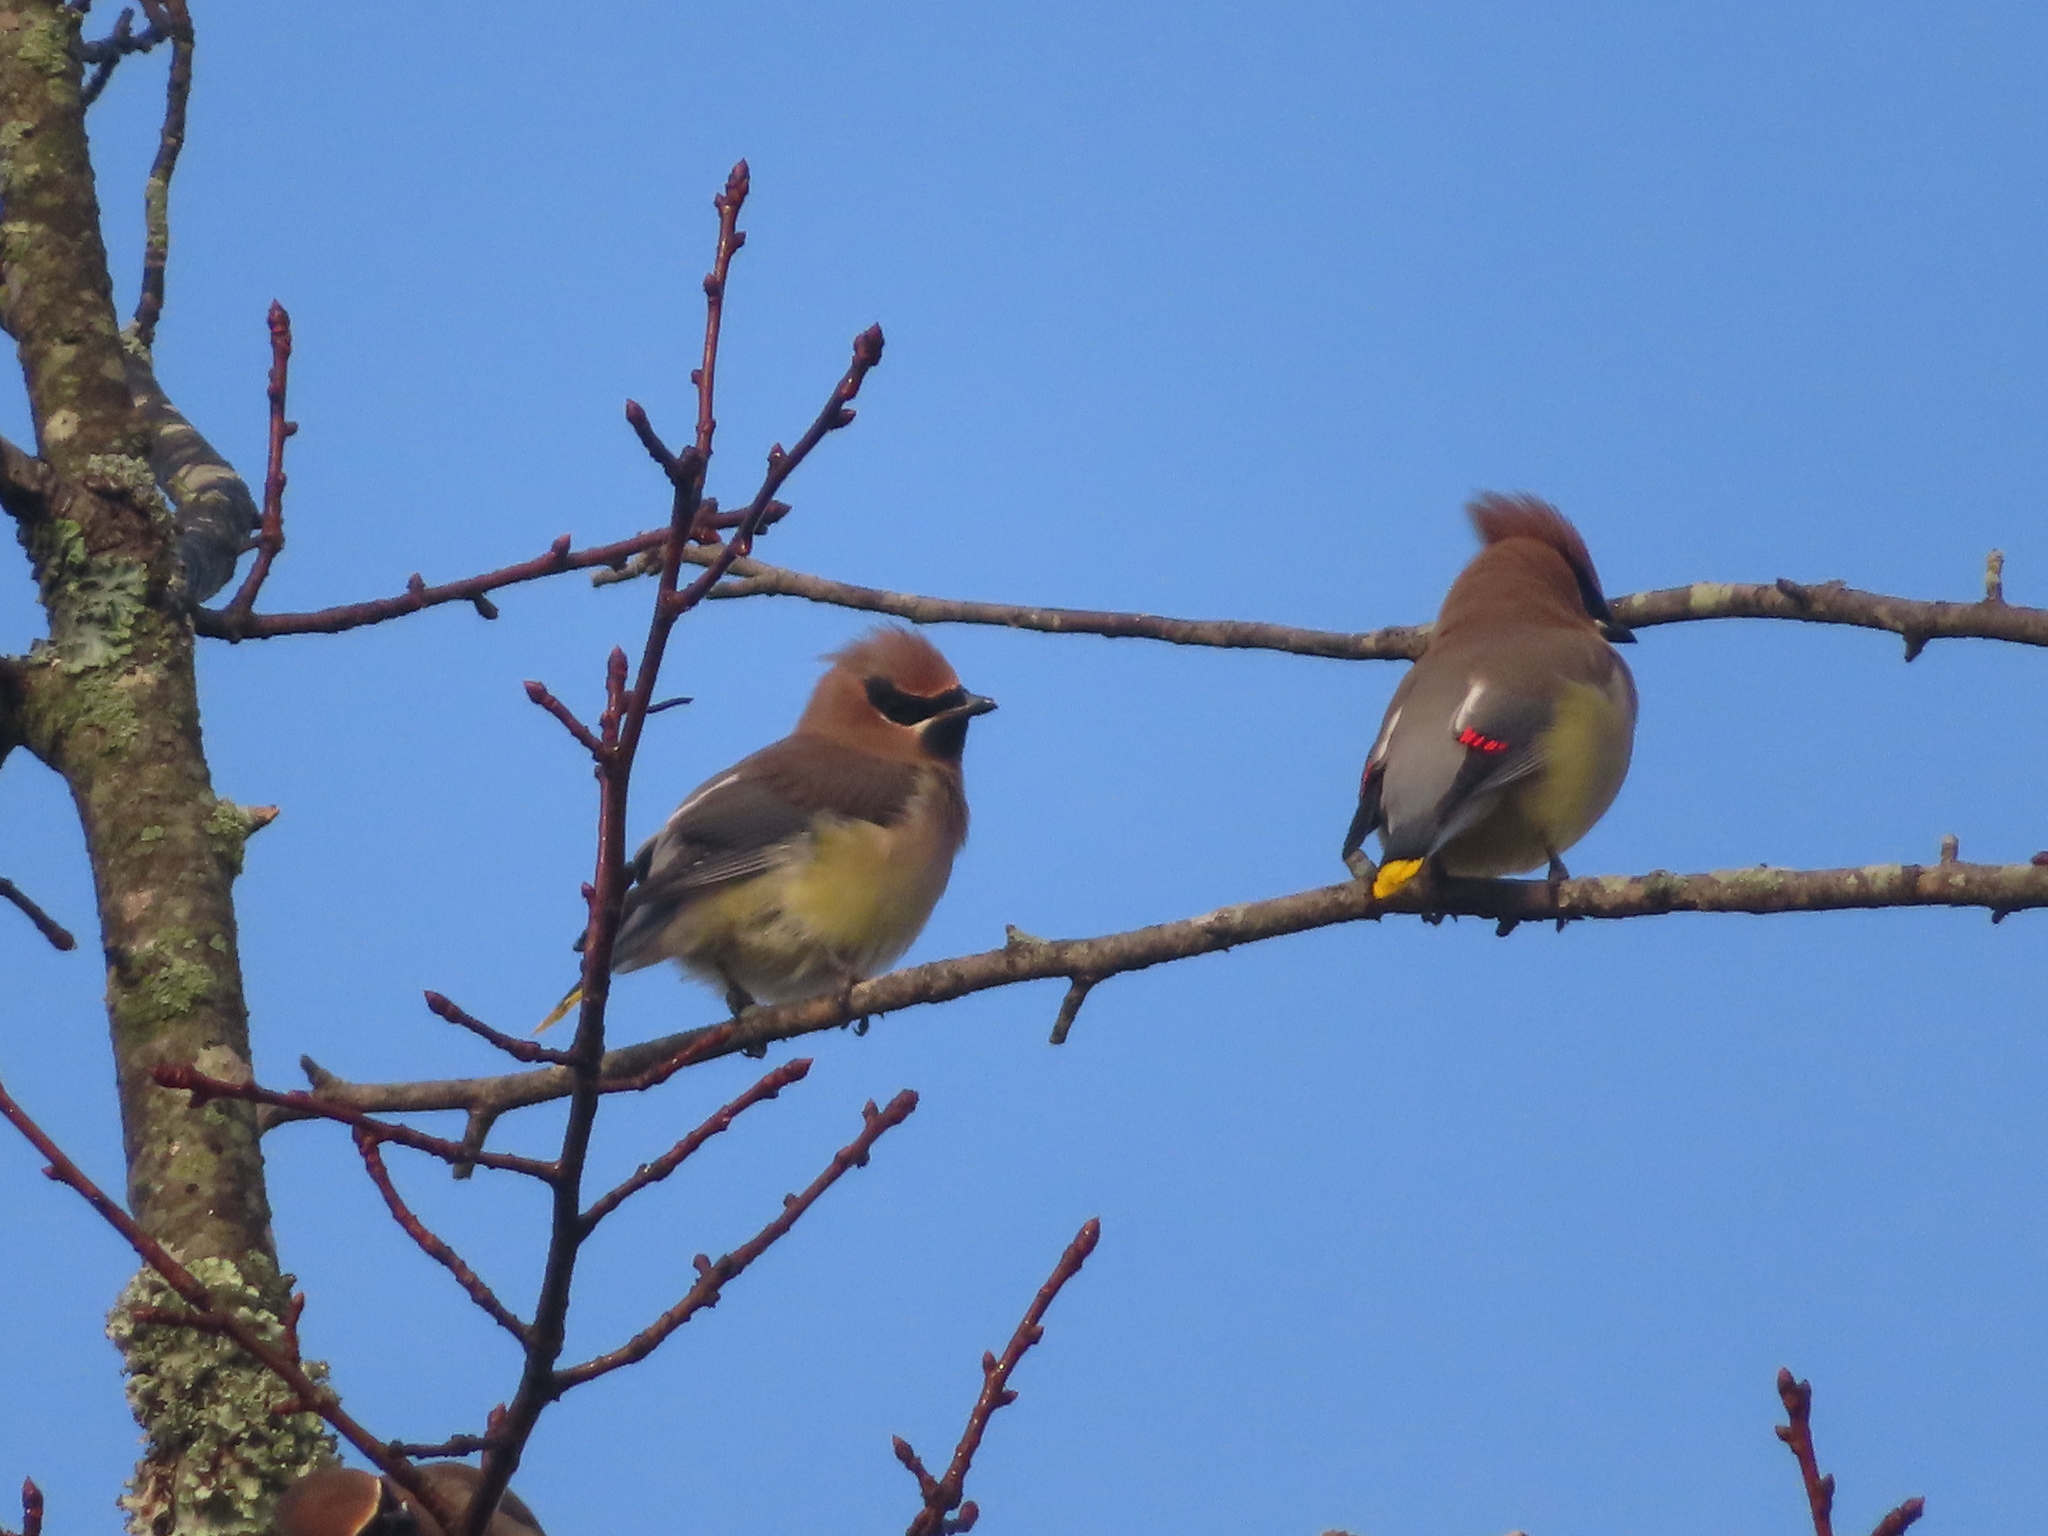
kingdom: Animalia
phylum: Chordata
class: Aves
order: Passeriformes
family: Bombycillidae
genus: Bombycilla
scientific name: Bombycilla cedrorum
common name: Cedar waxwing
